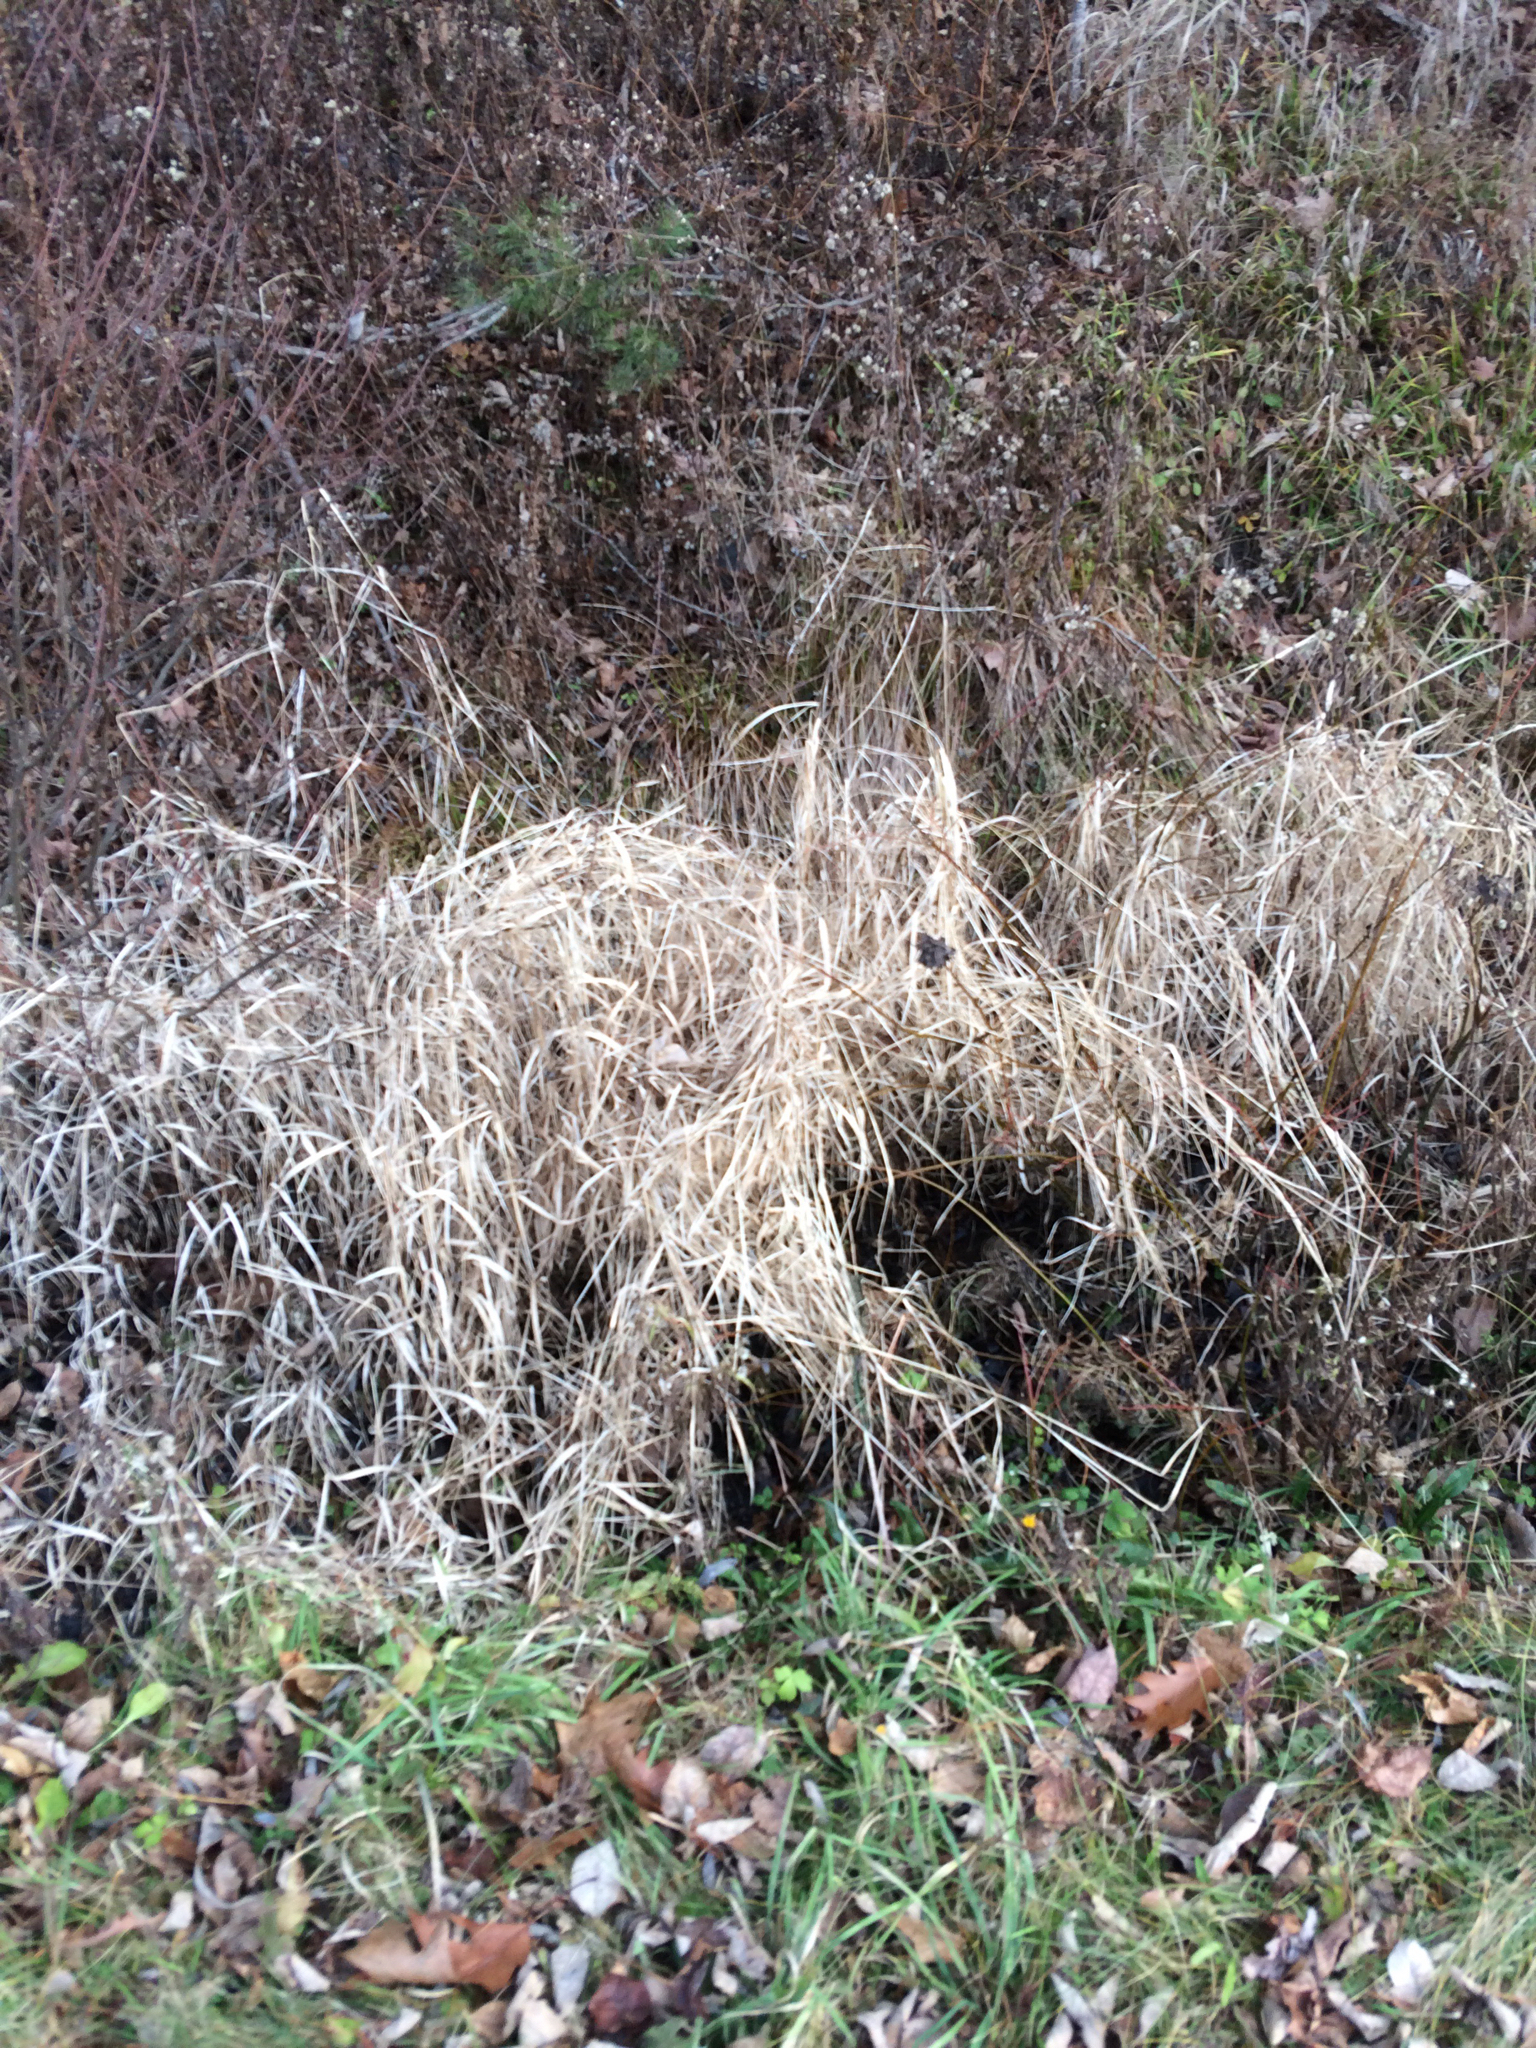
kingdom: Plantae
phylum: Tracheophyta
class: Liliopsida
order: Poales
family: Poaceae
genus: Phalaris
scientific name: Phalaris arundinacea
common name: Reed canary-grass
